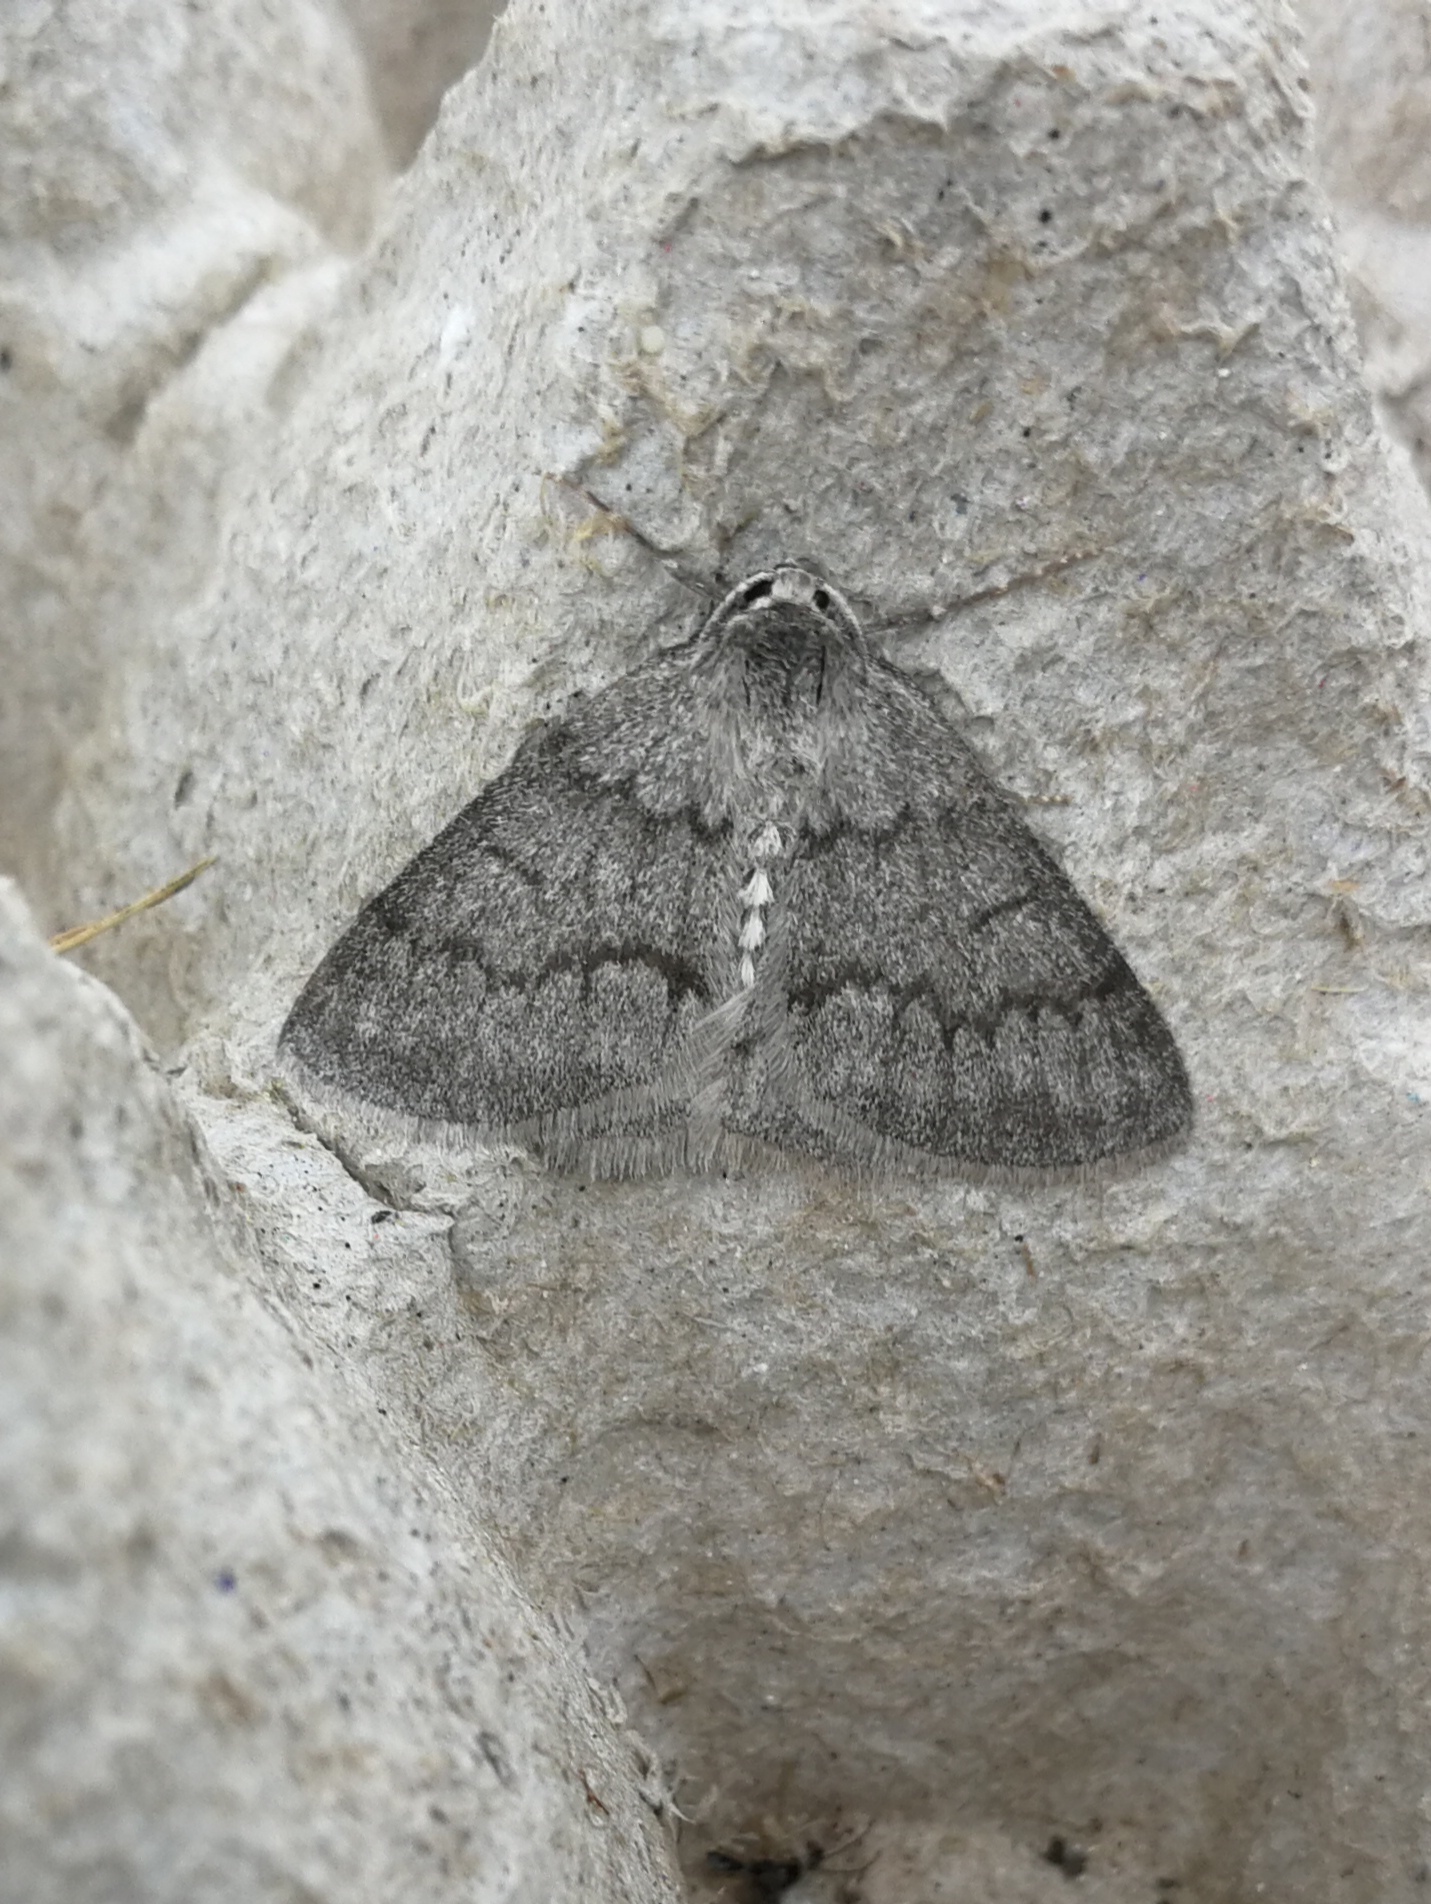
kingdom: Animalia
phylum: Arthropoda
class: Insecta
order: Lepidoptera
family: Geometridae
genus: Pseudoterpna
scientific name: Pseudoterpna coronillaria
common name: Jersey emerald
